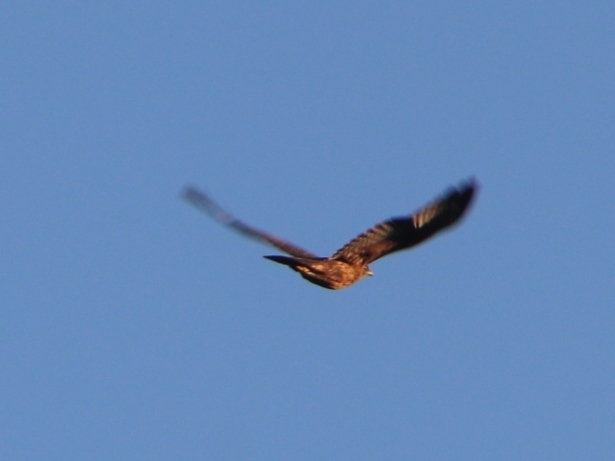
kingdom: Animalia
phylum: Chordata
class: Aves
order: Accipitriformes
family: Accipitridae
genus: Accipiter
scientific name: Accipiter melanoleucus
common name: Black sparrowhawk
